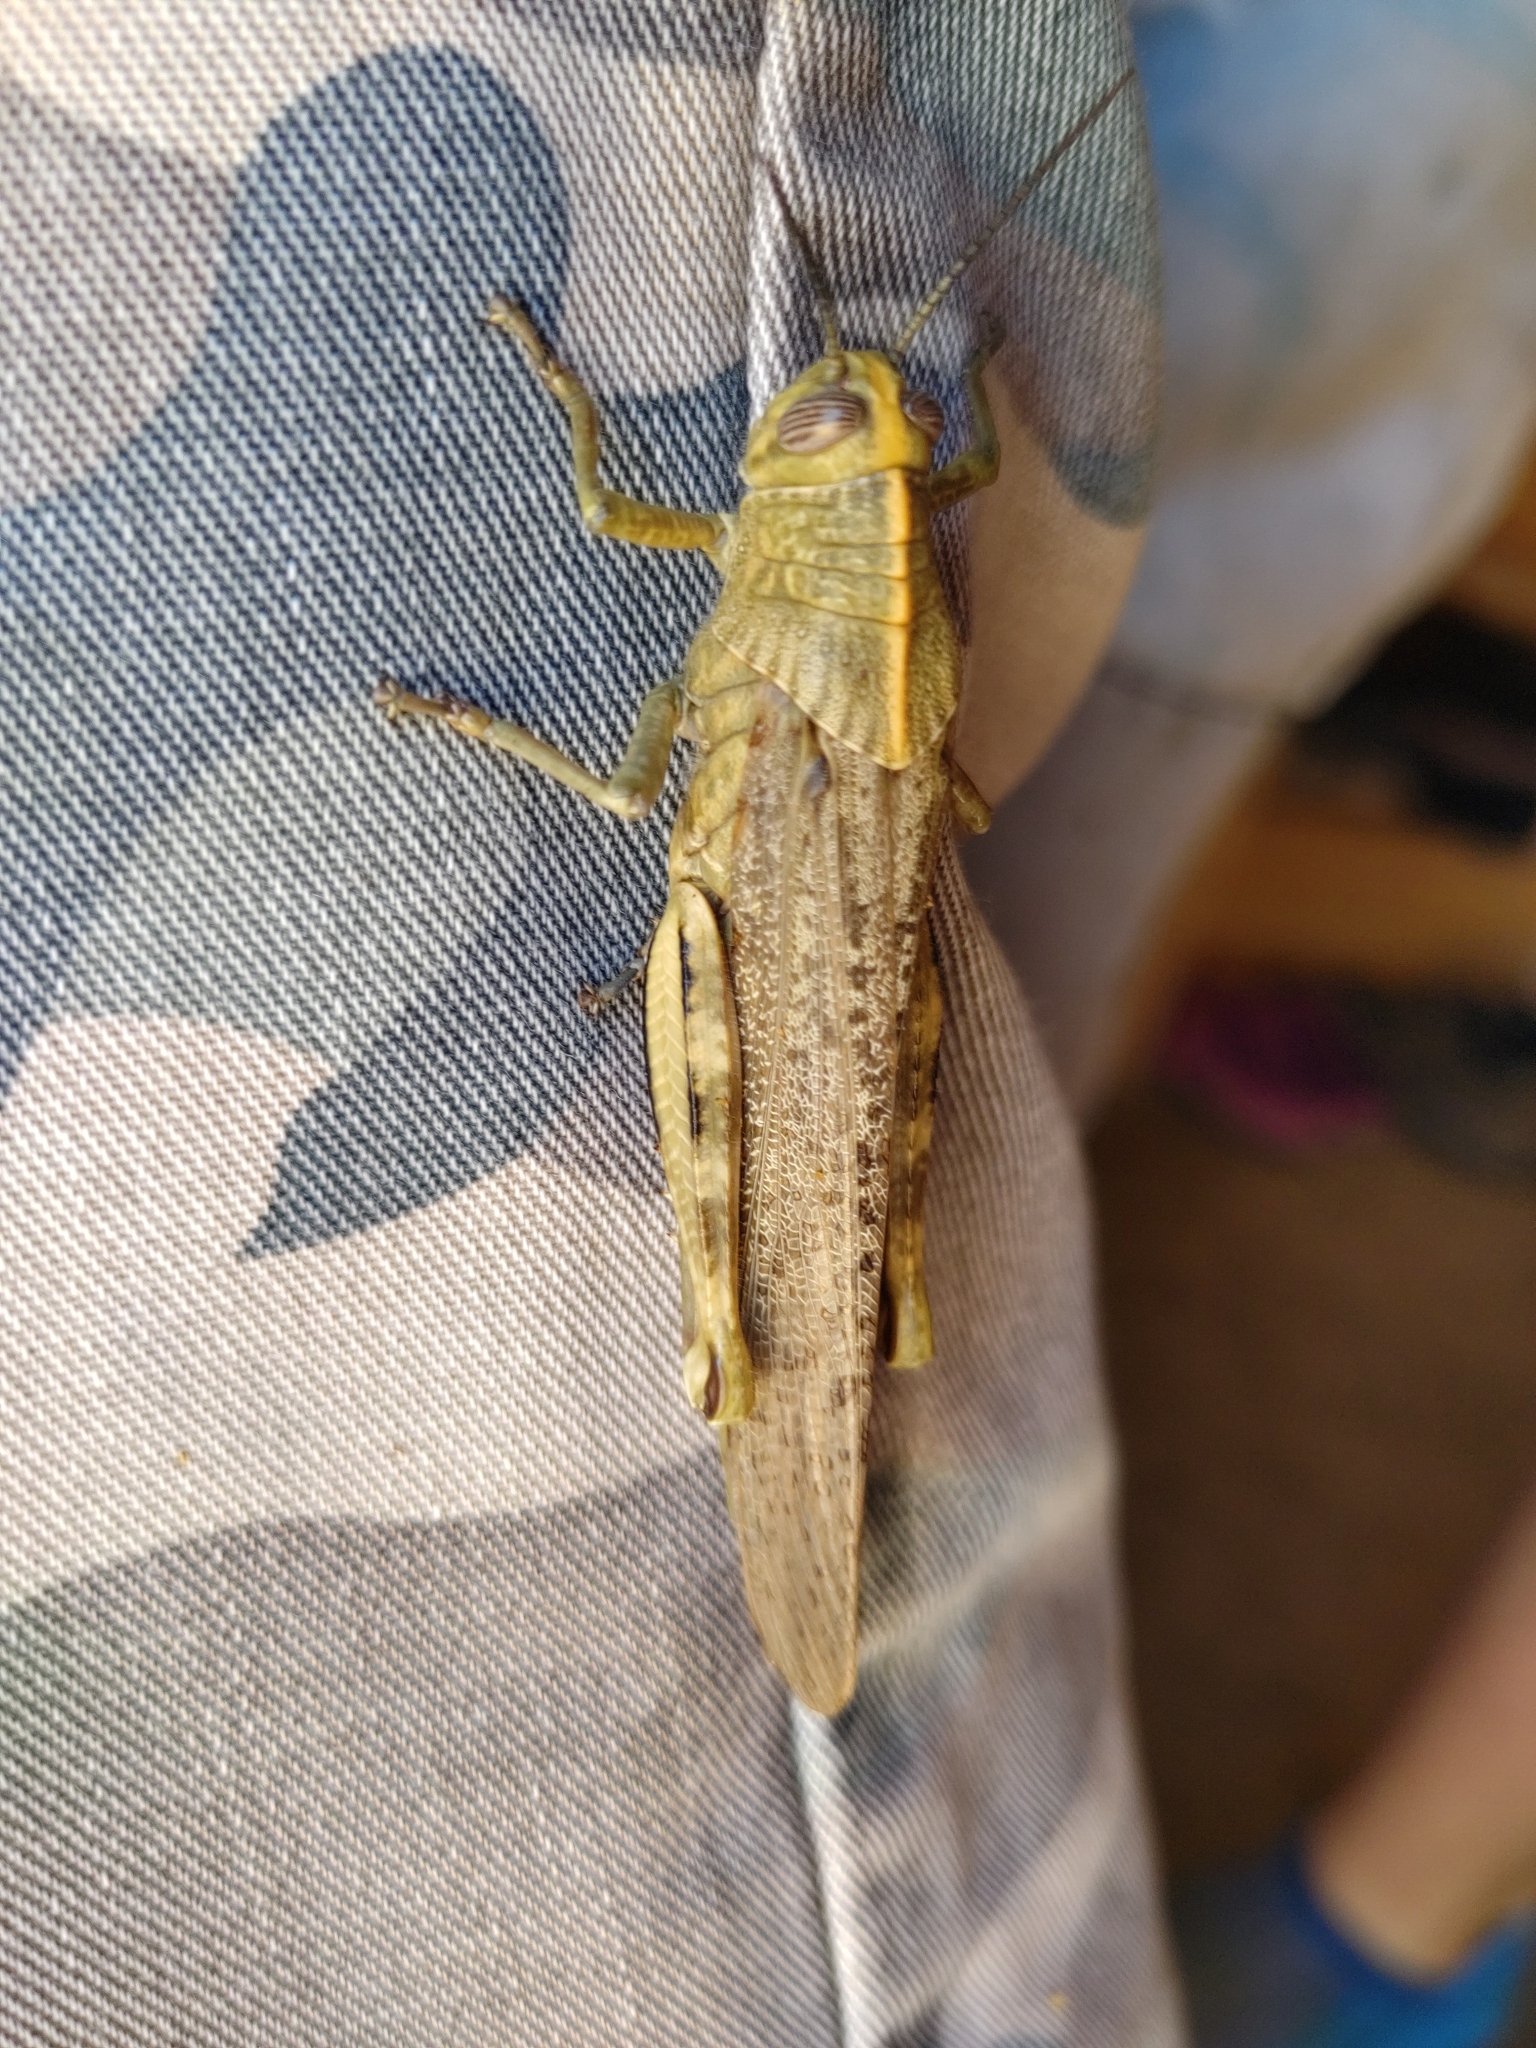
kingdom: Animalia
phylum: Arthropoda
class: Insecta
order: Orthoptera
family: Acrididae
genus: Anacridium
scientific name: Anacridium aegyptium
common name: Egyptian grasshopper
